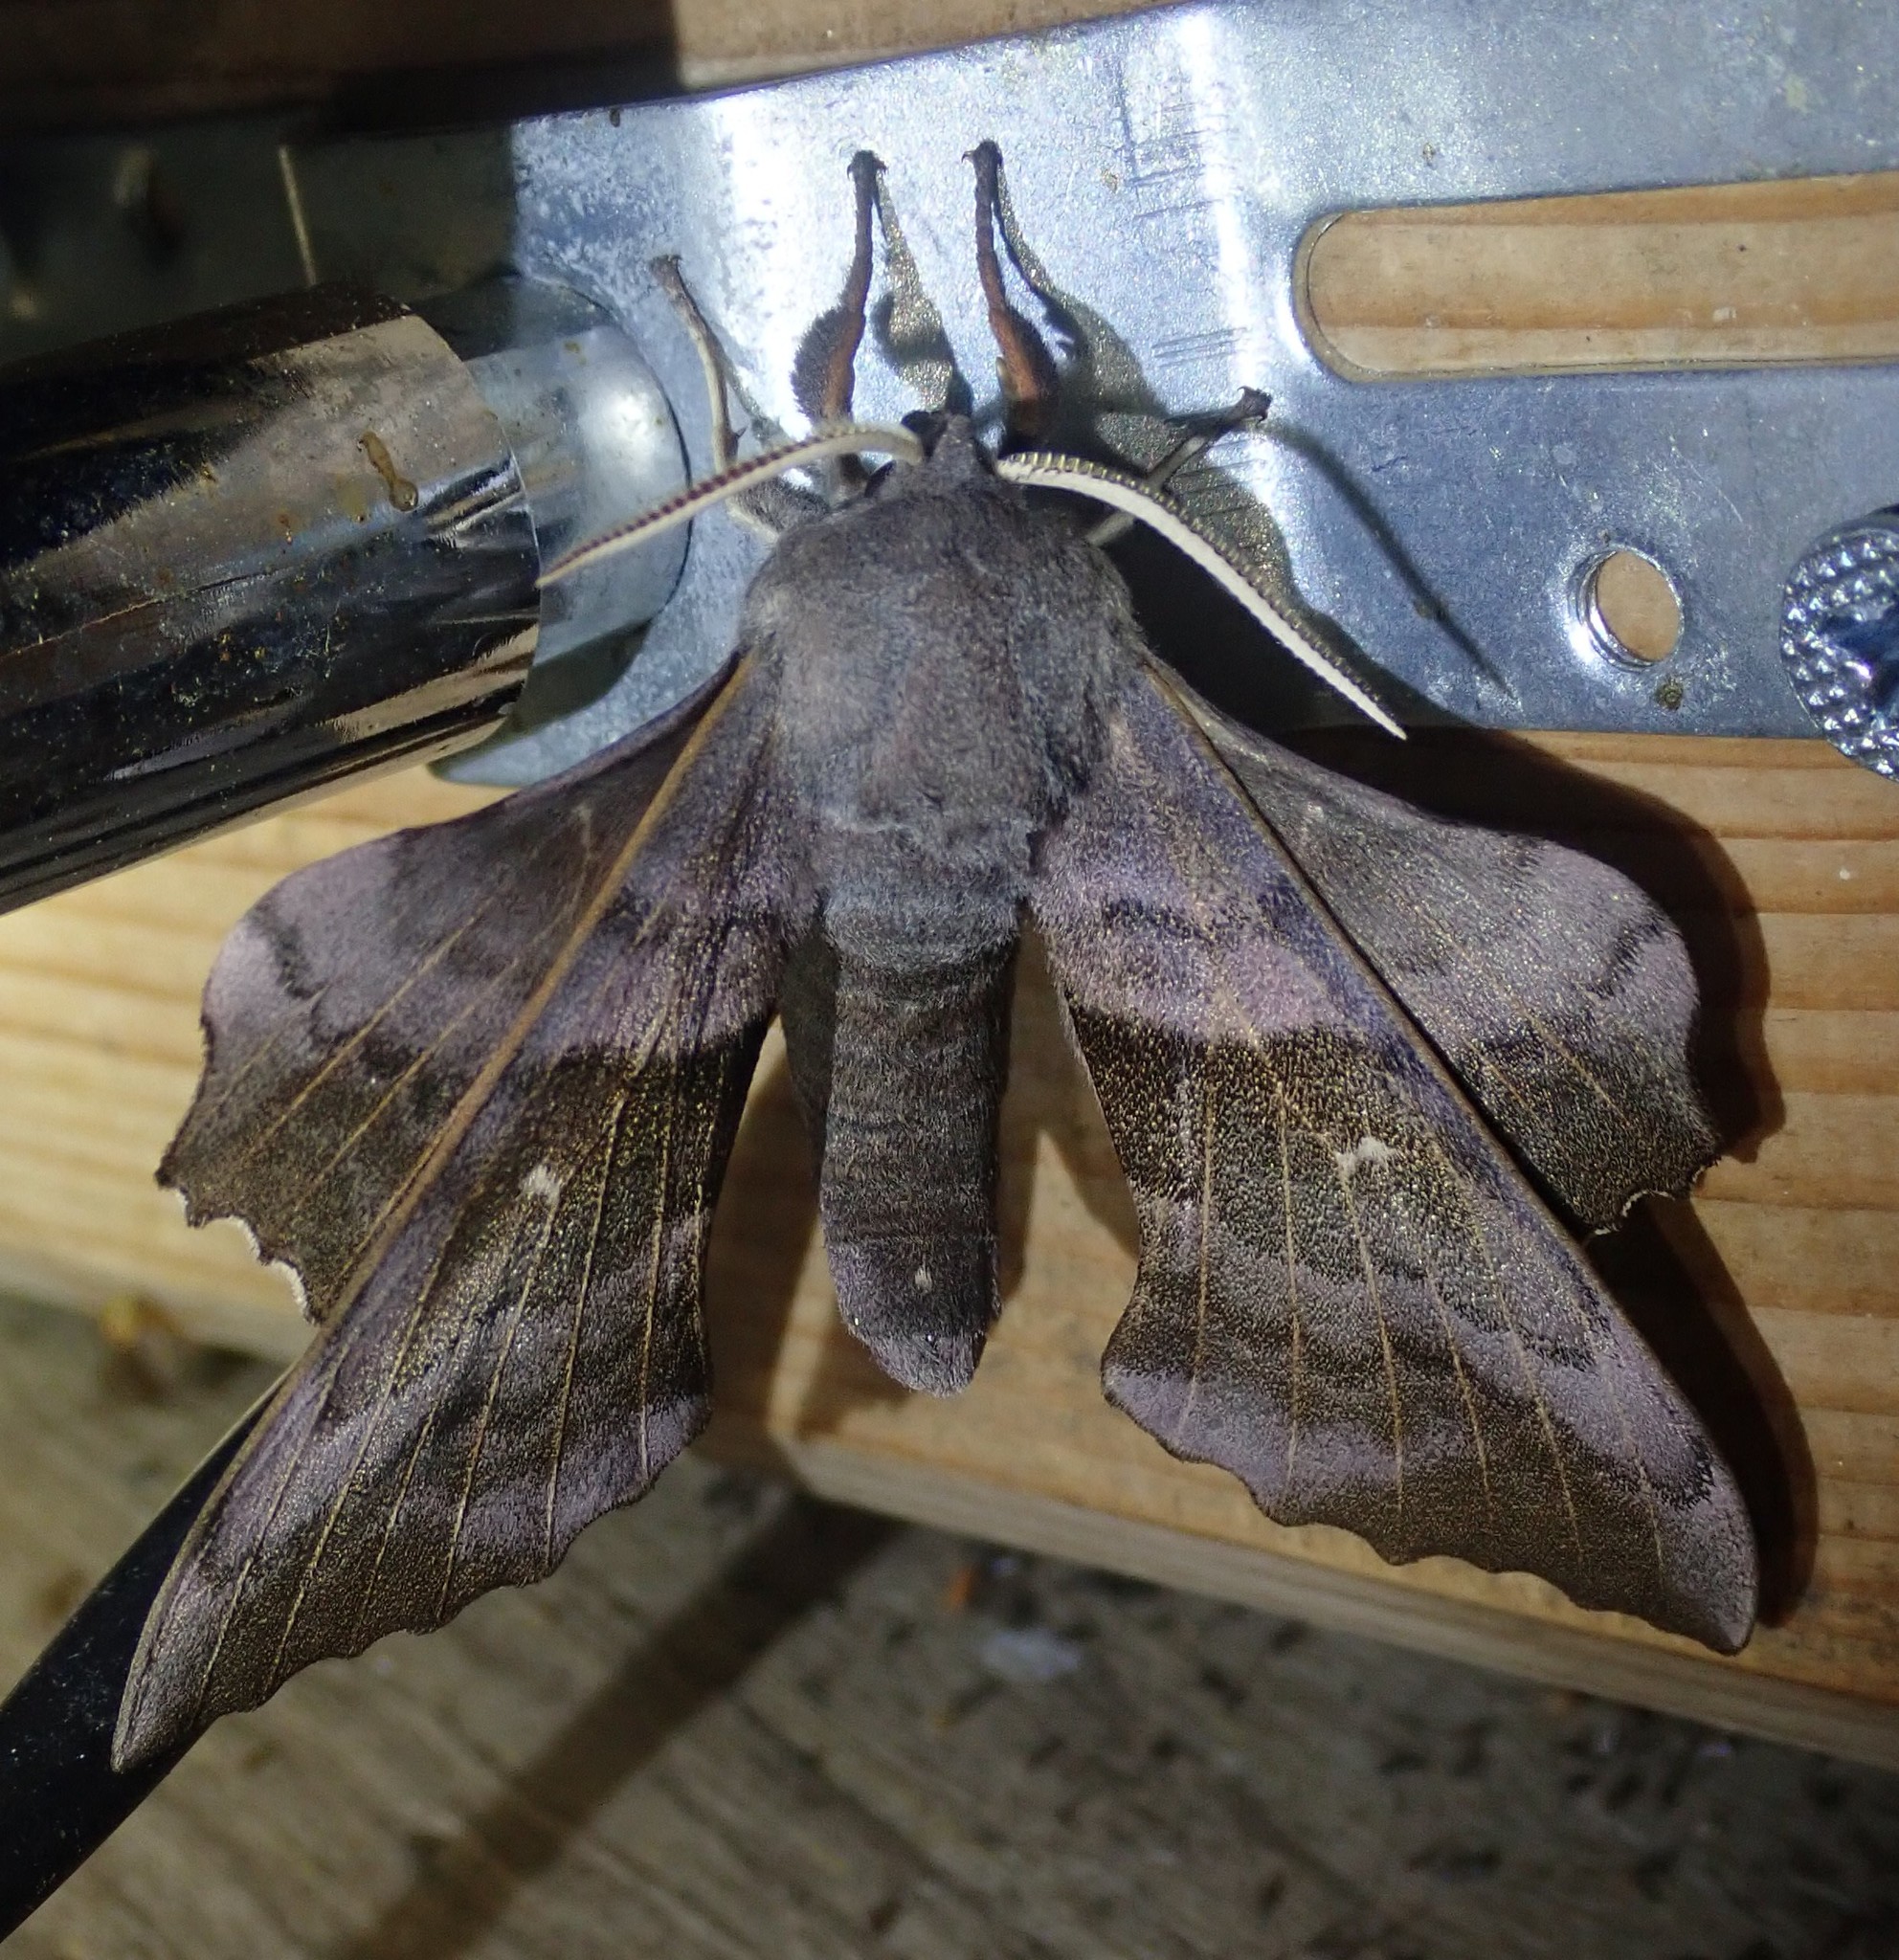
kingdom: Animalia
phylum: Arthropoda
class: Insecta
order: Lepidoptera
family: Sphingidae
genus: Laothoe
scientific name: Laothoe populi
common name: Poplar hawk-moth
